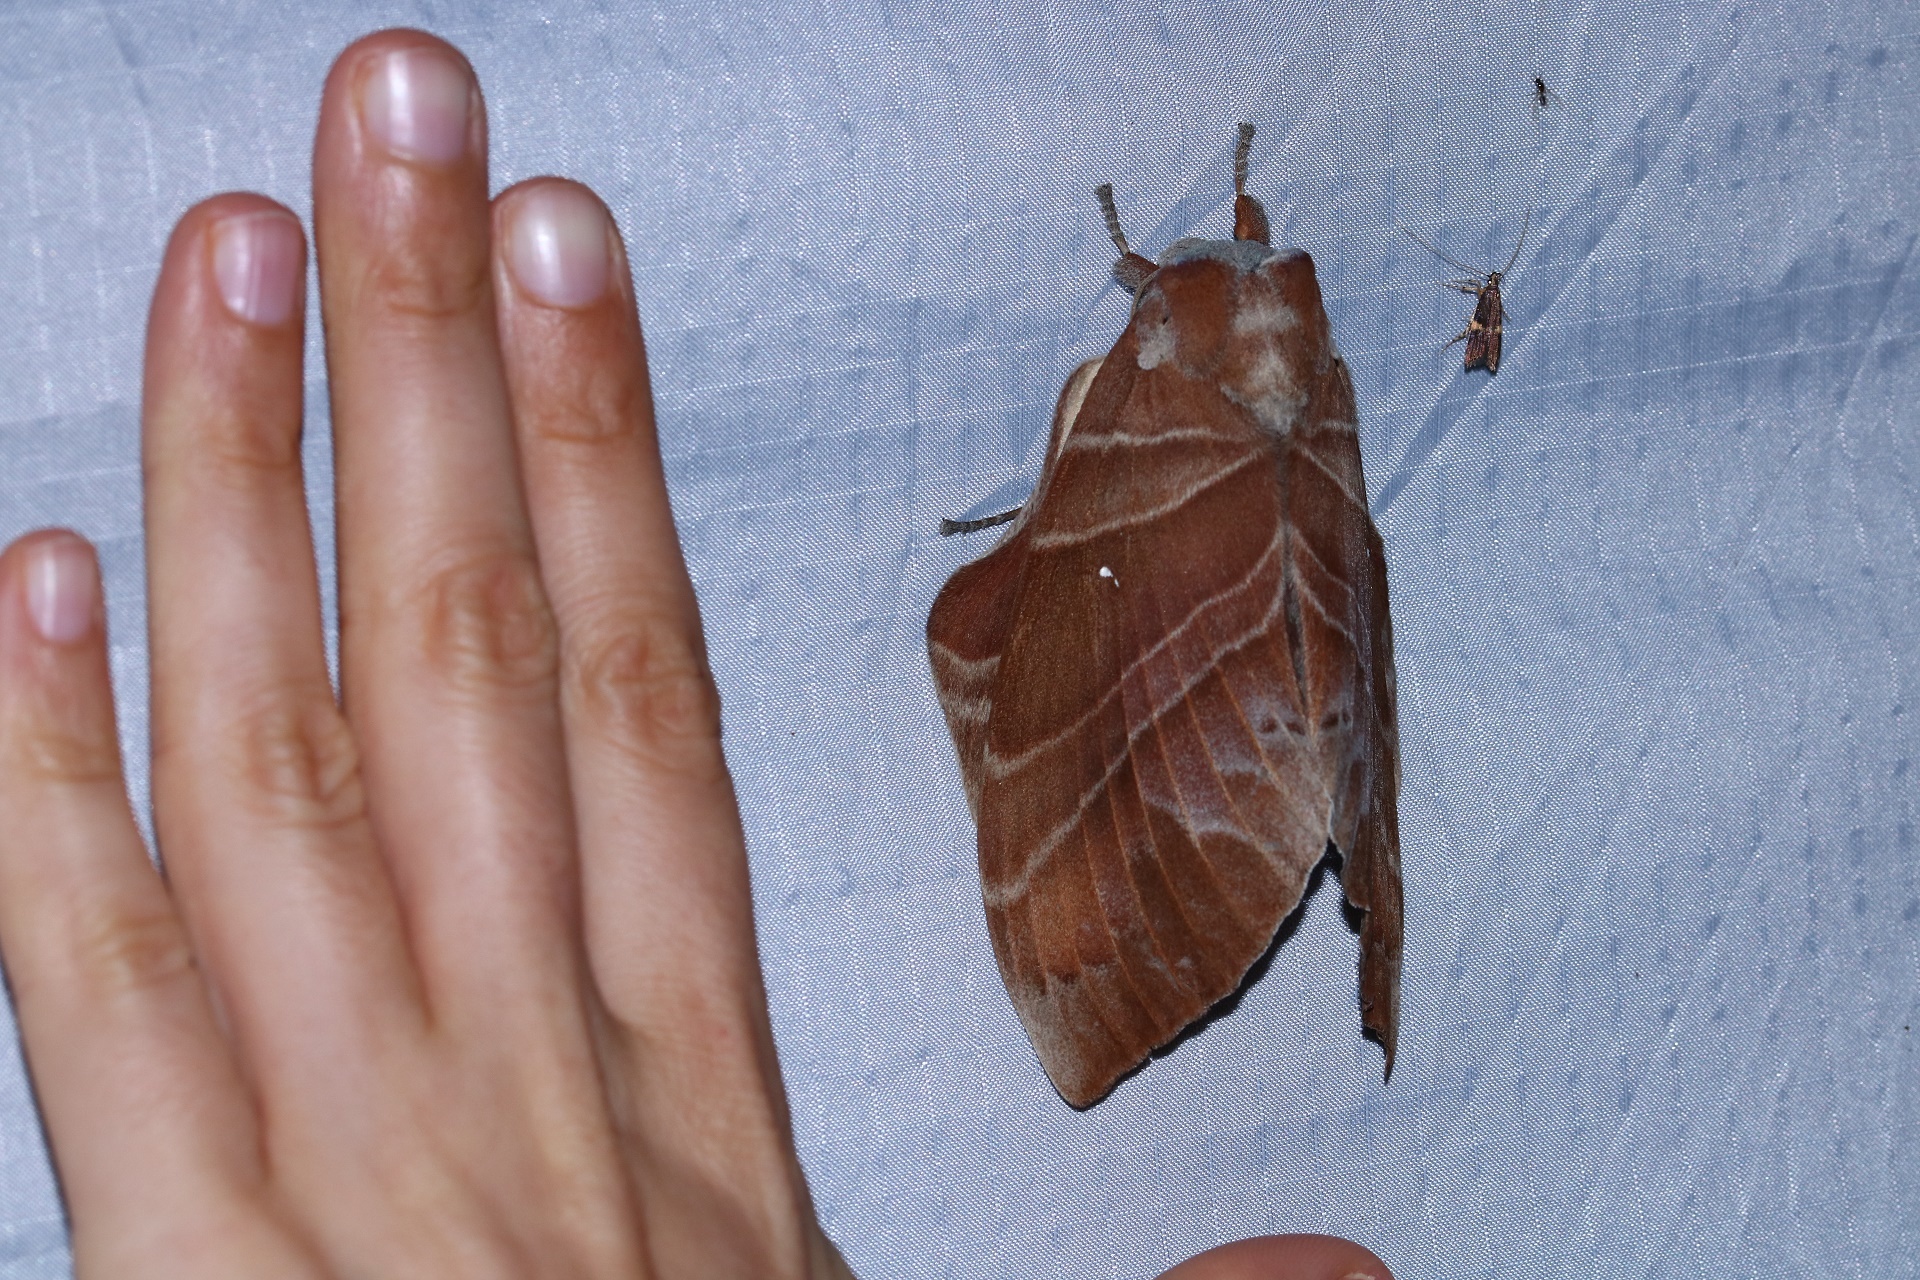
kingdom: Animalia
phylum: Arthropoda
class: Insecta
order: Lepidoptera
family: Lasiocampidae
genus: Lebeda
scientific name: Lebeda cognata
